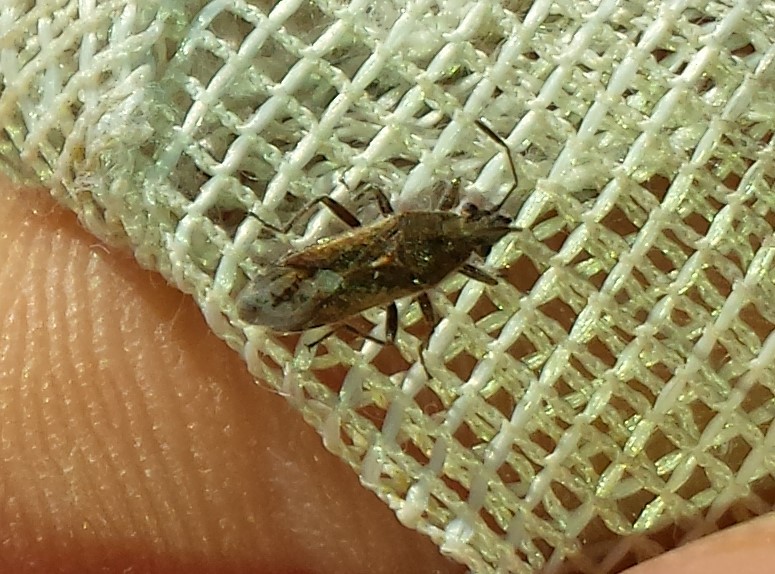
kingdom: Animalia
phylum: Arthropoda
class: Insecta
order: Hemiptera
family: Lygaeidae
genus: Neortholomus
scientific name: Neortholomus scolopax
